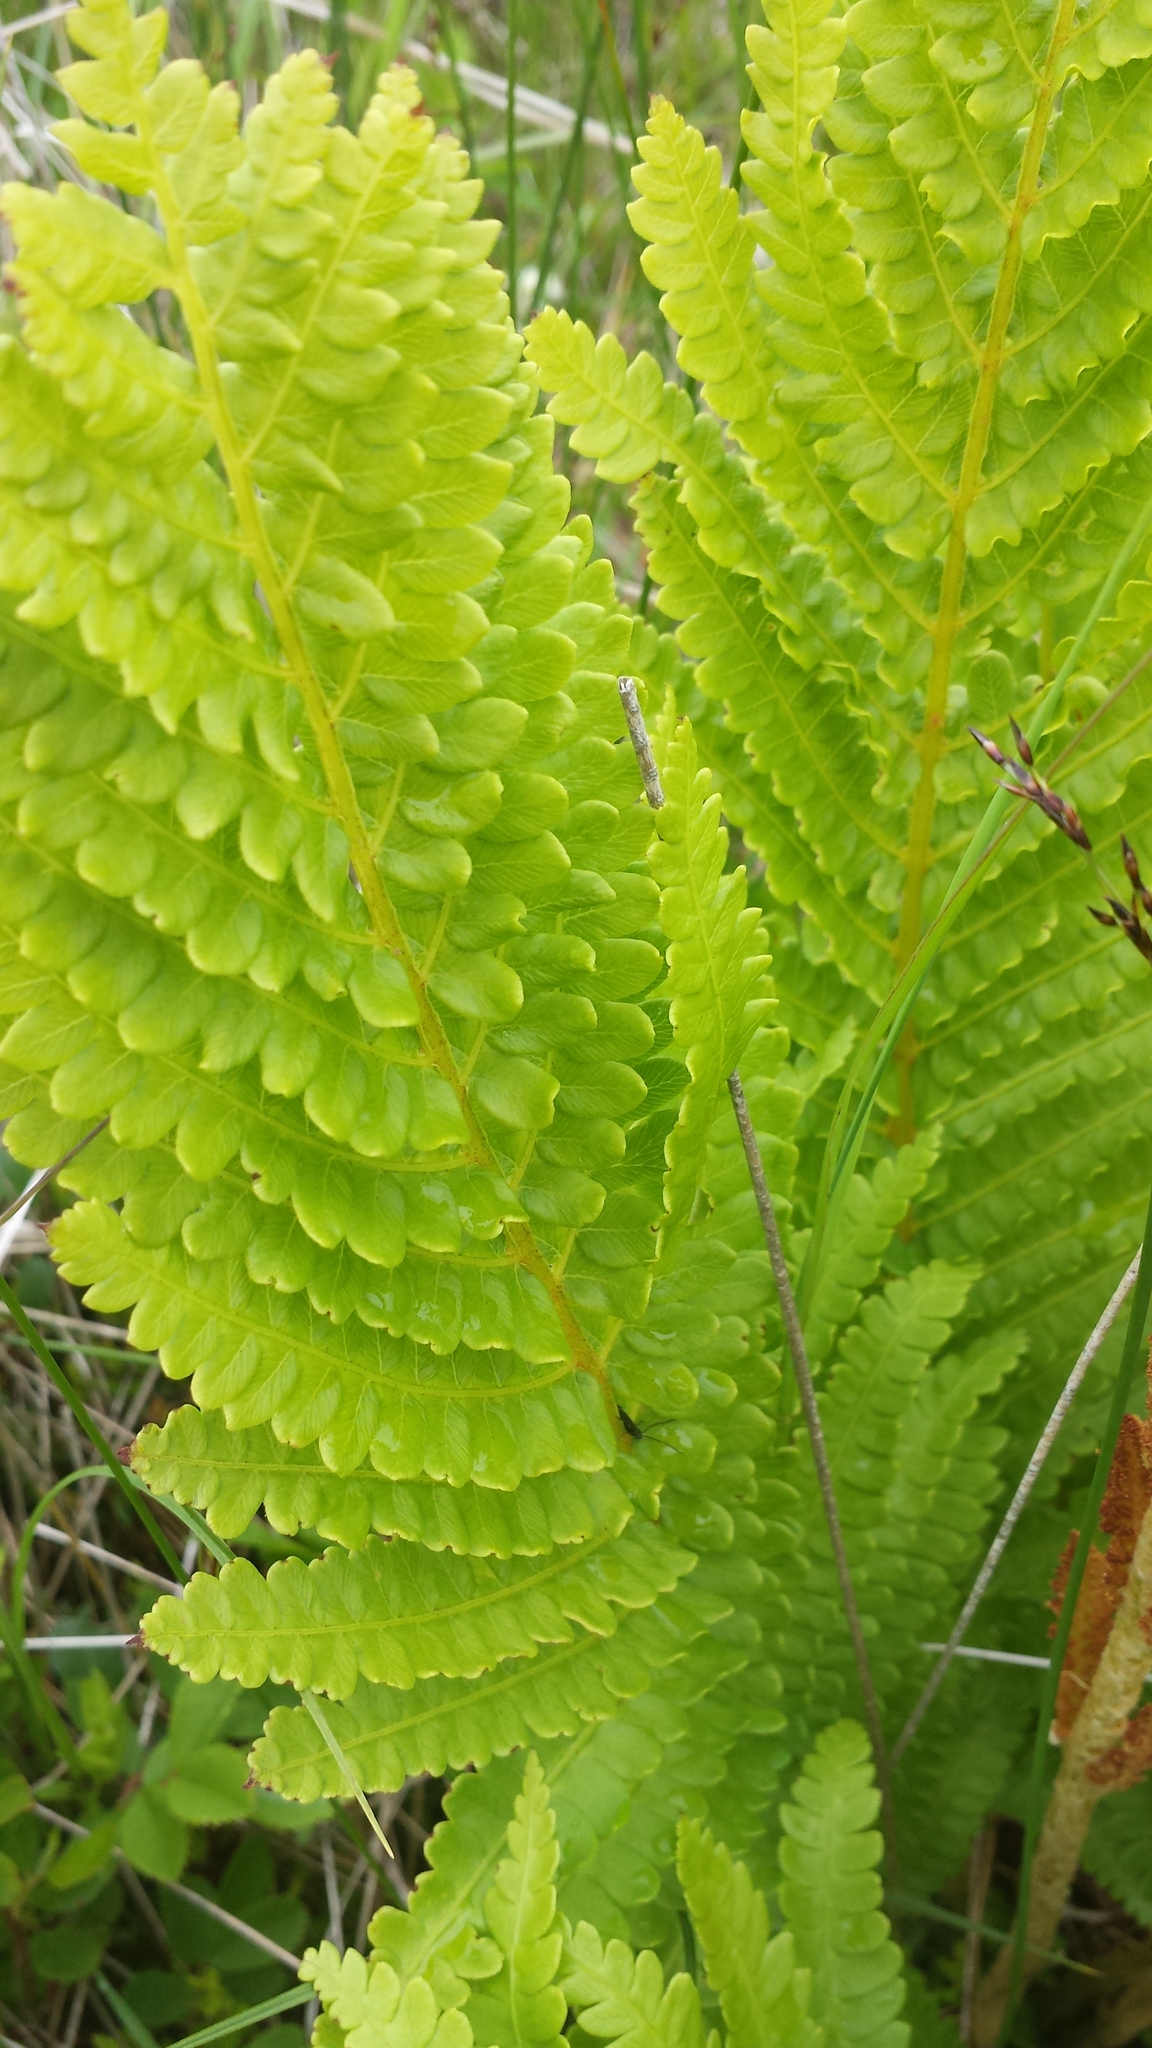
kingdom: Plantae
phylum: Tracheophyta
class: Polypodiopsida
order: Osmundales
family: Osmundaceae
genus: Osmundastrum
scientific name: Osmundastrum cinnamomeum
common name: Cinnamon fern
